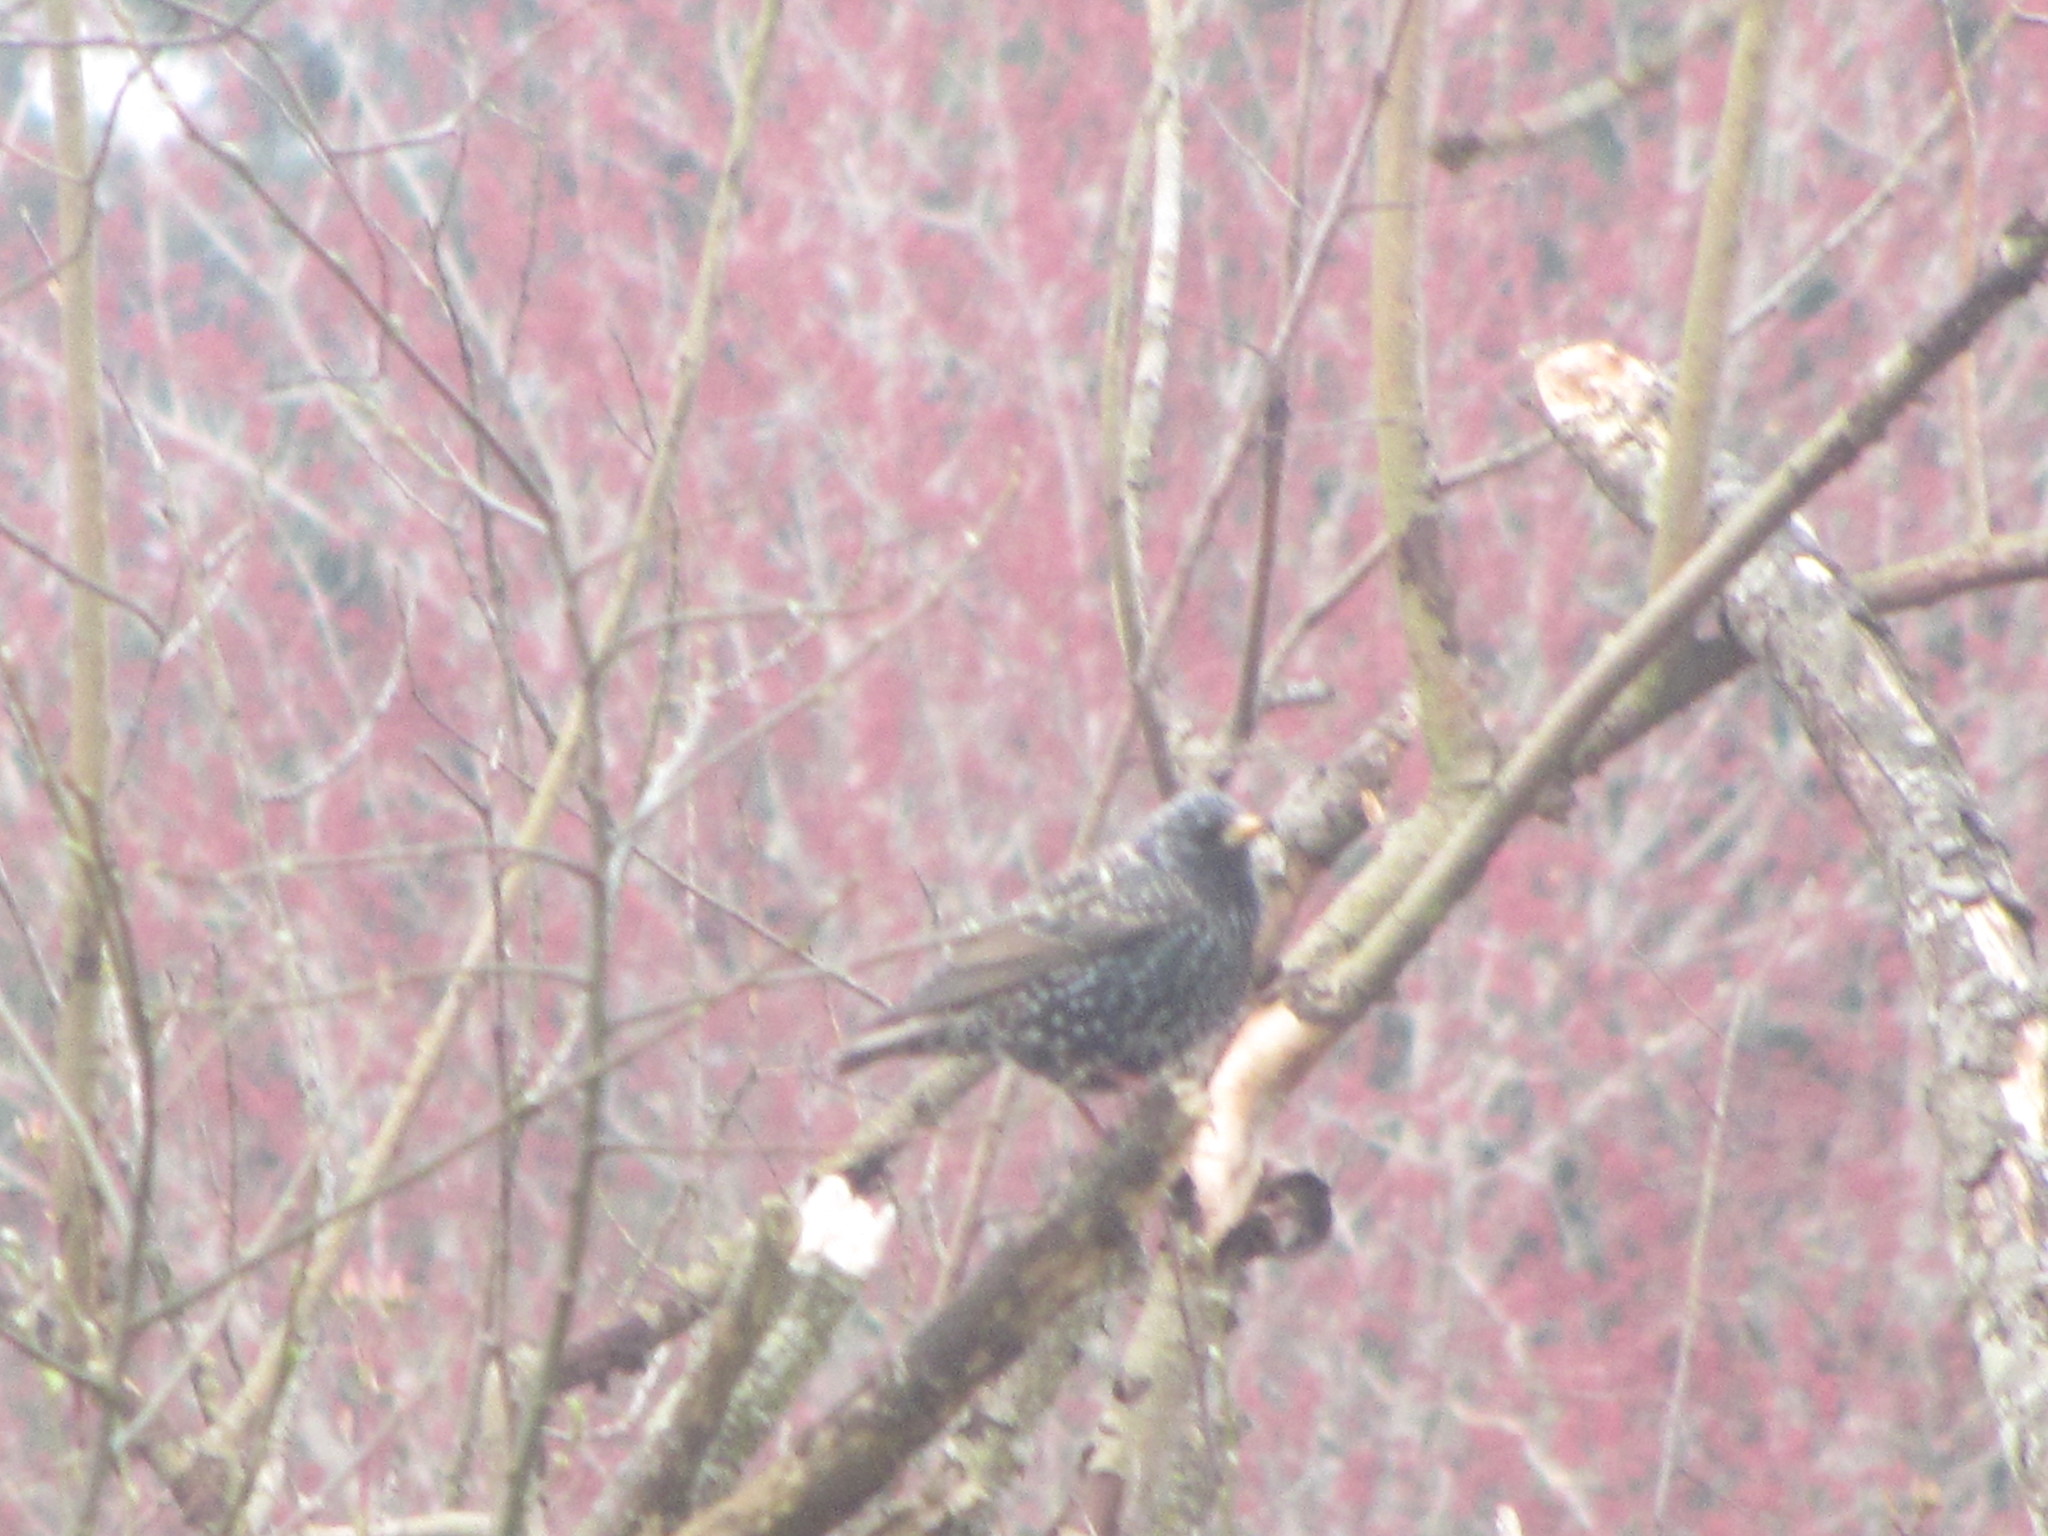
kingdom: Animalia
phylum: Chordata
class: Aves
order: Passeriformes
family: Sturnidae
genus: Sturnus
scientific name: Sturnus vulgaris
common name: Common starling
